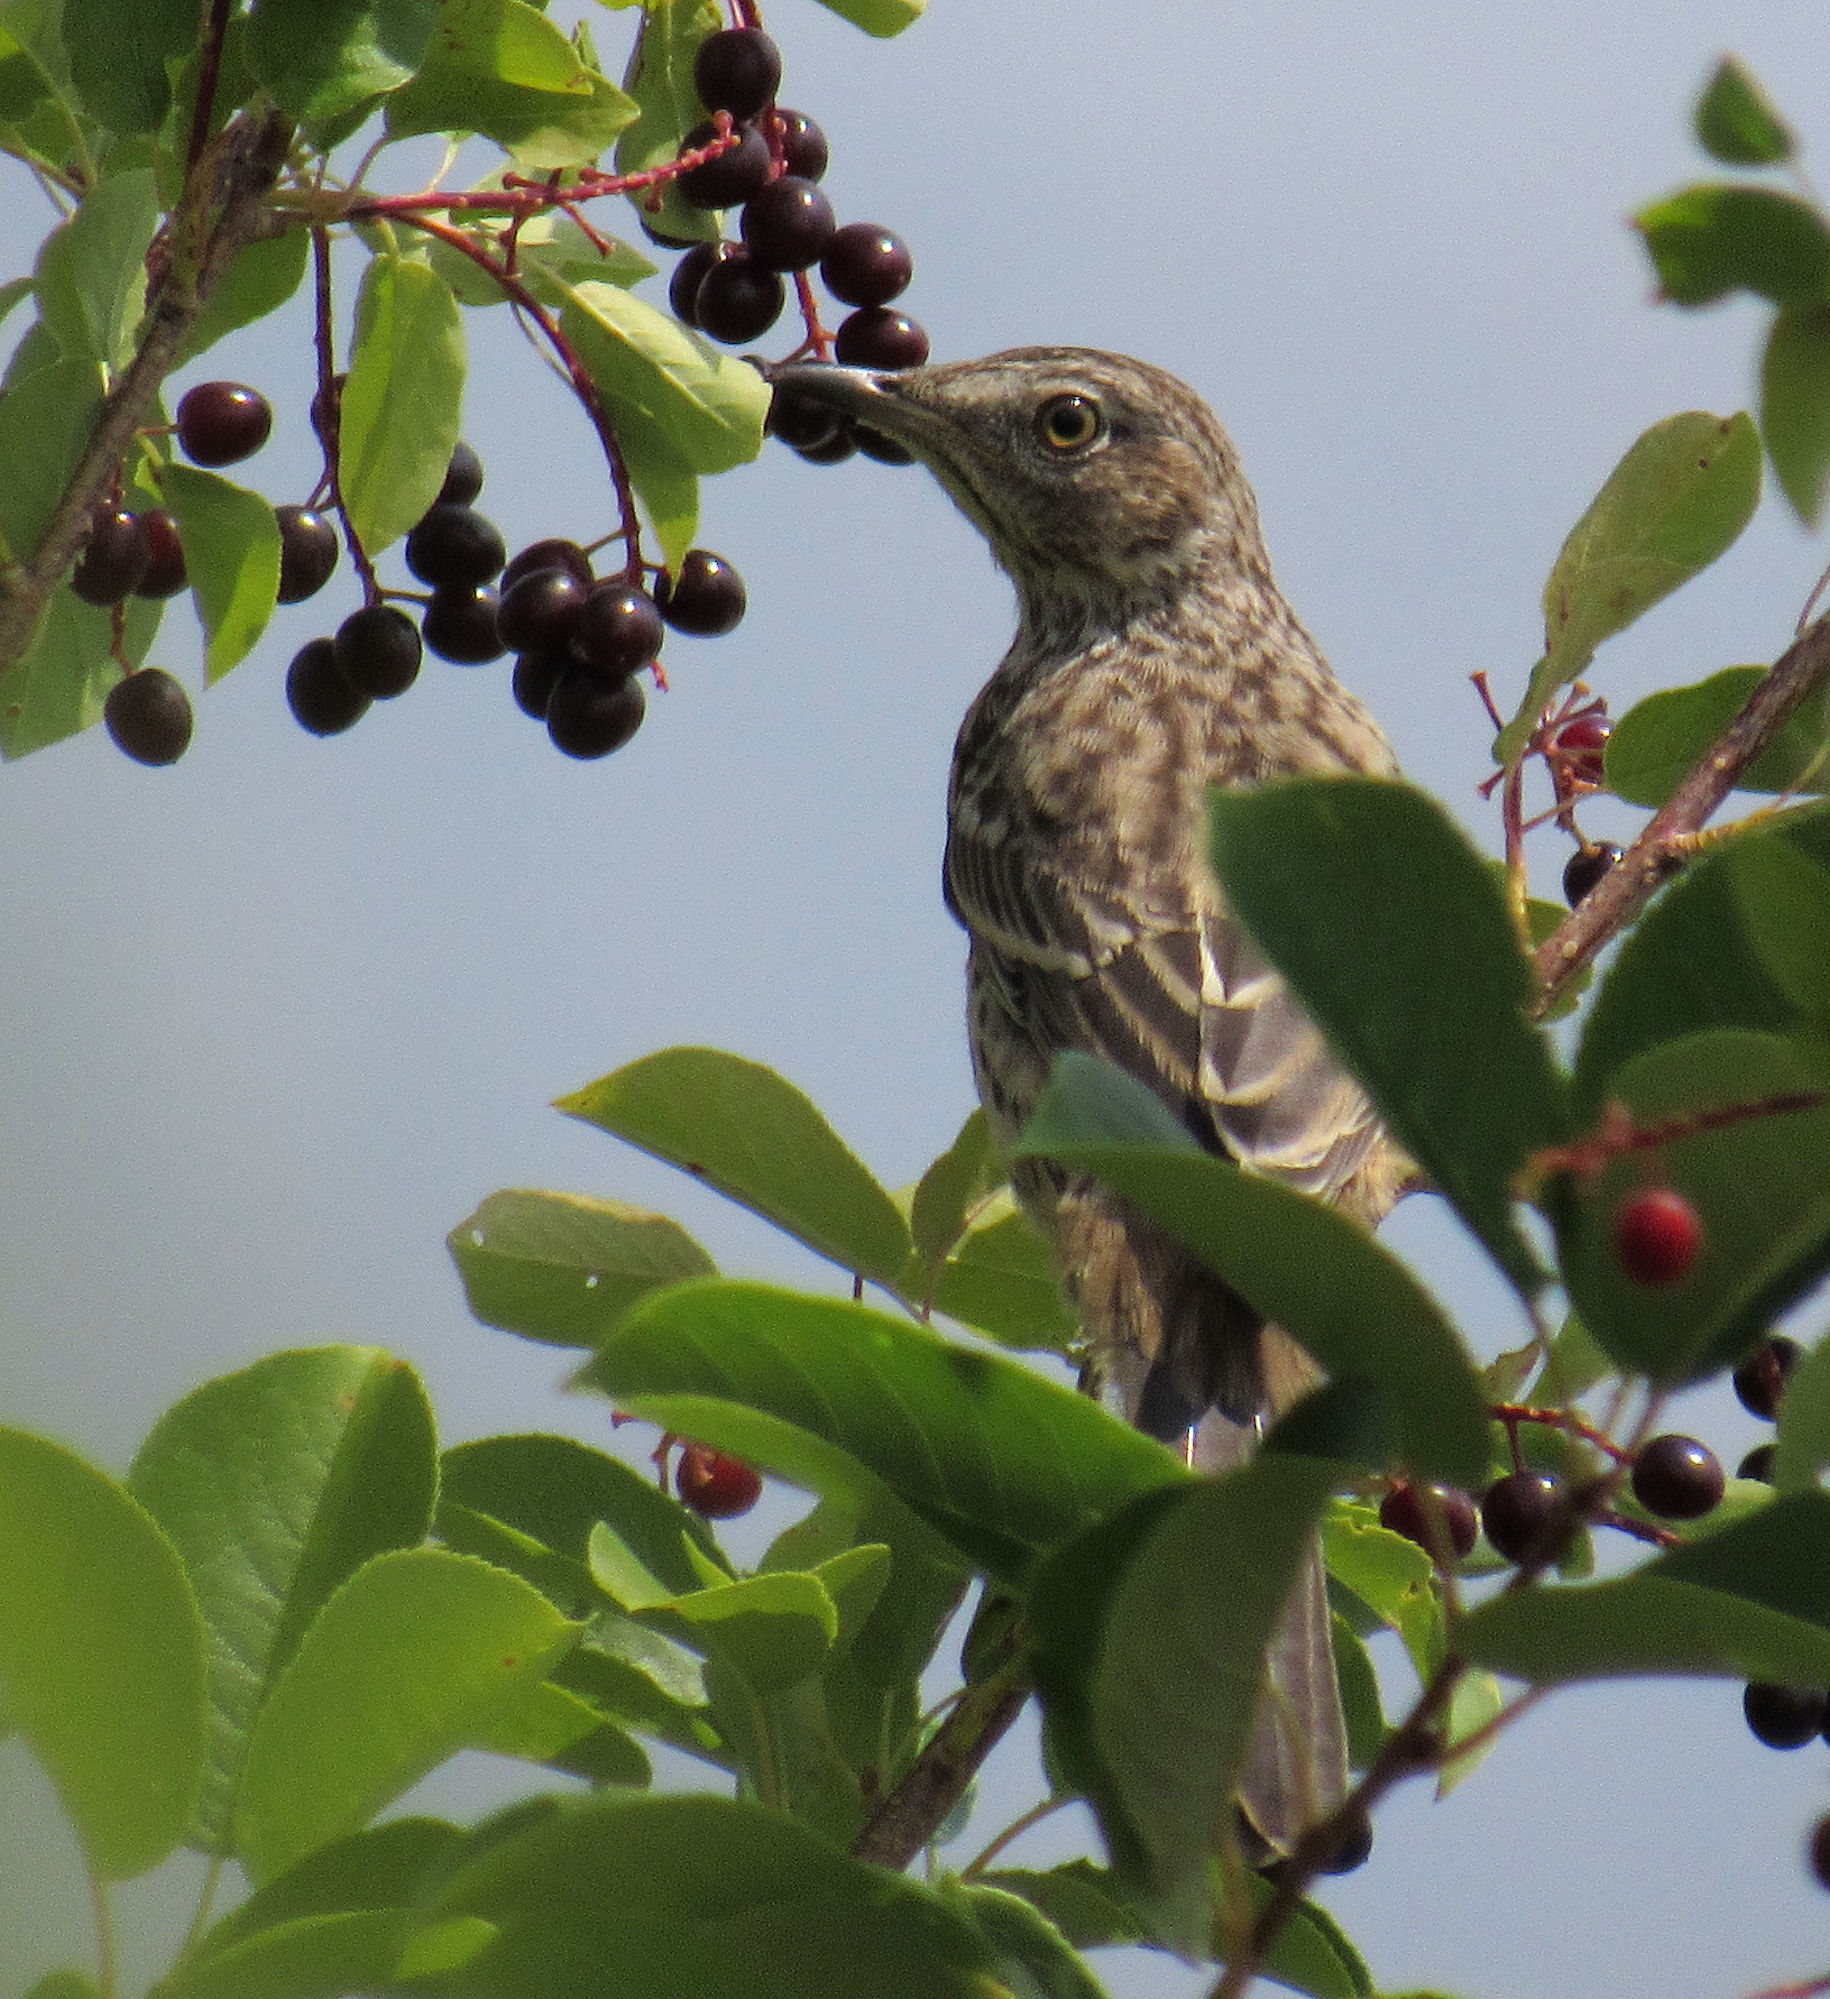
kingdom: Animalia
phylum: Chordata
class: Aves
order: Passeriformes
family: Mimidae
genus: Oreoscoptes
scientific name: Oreoscoptes montanus
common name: Sage thrasher
